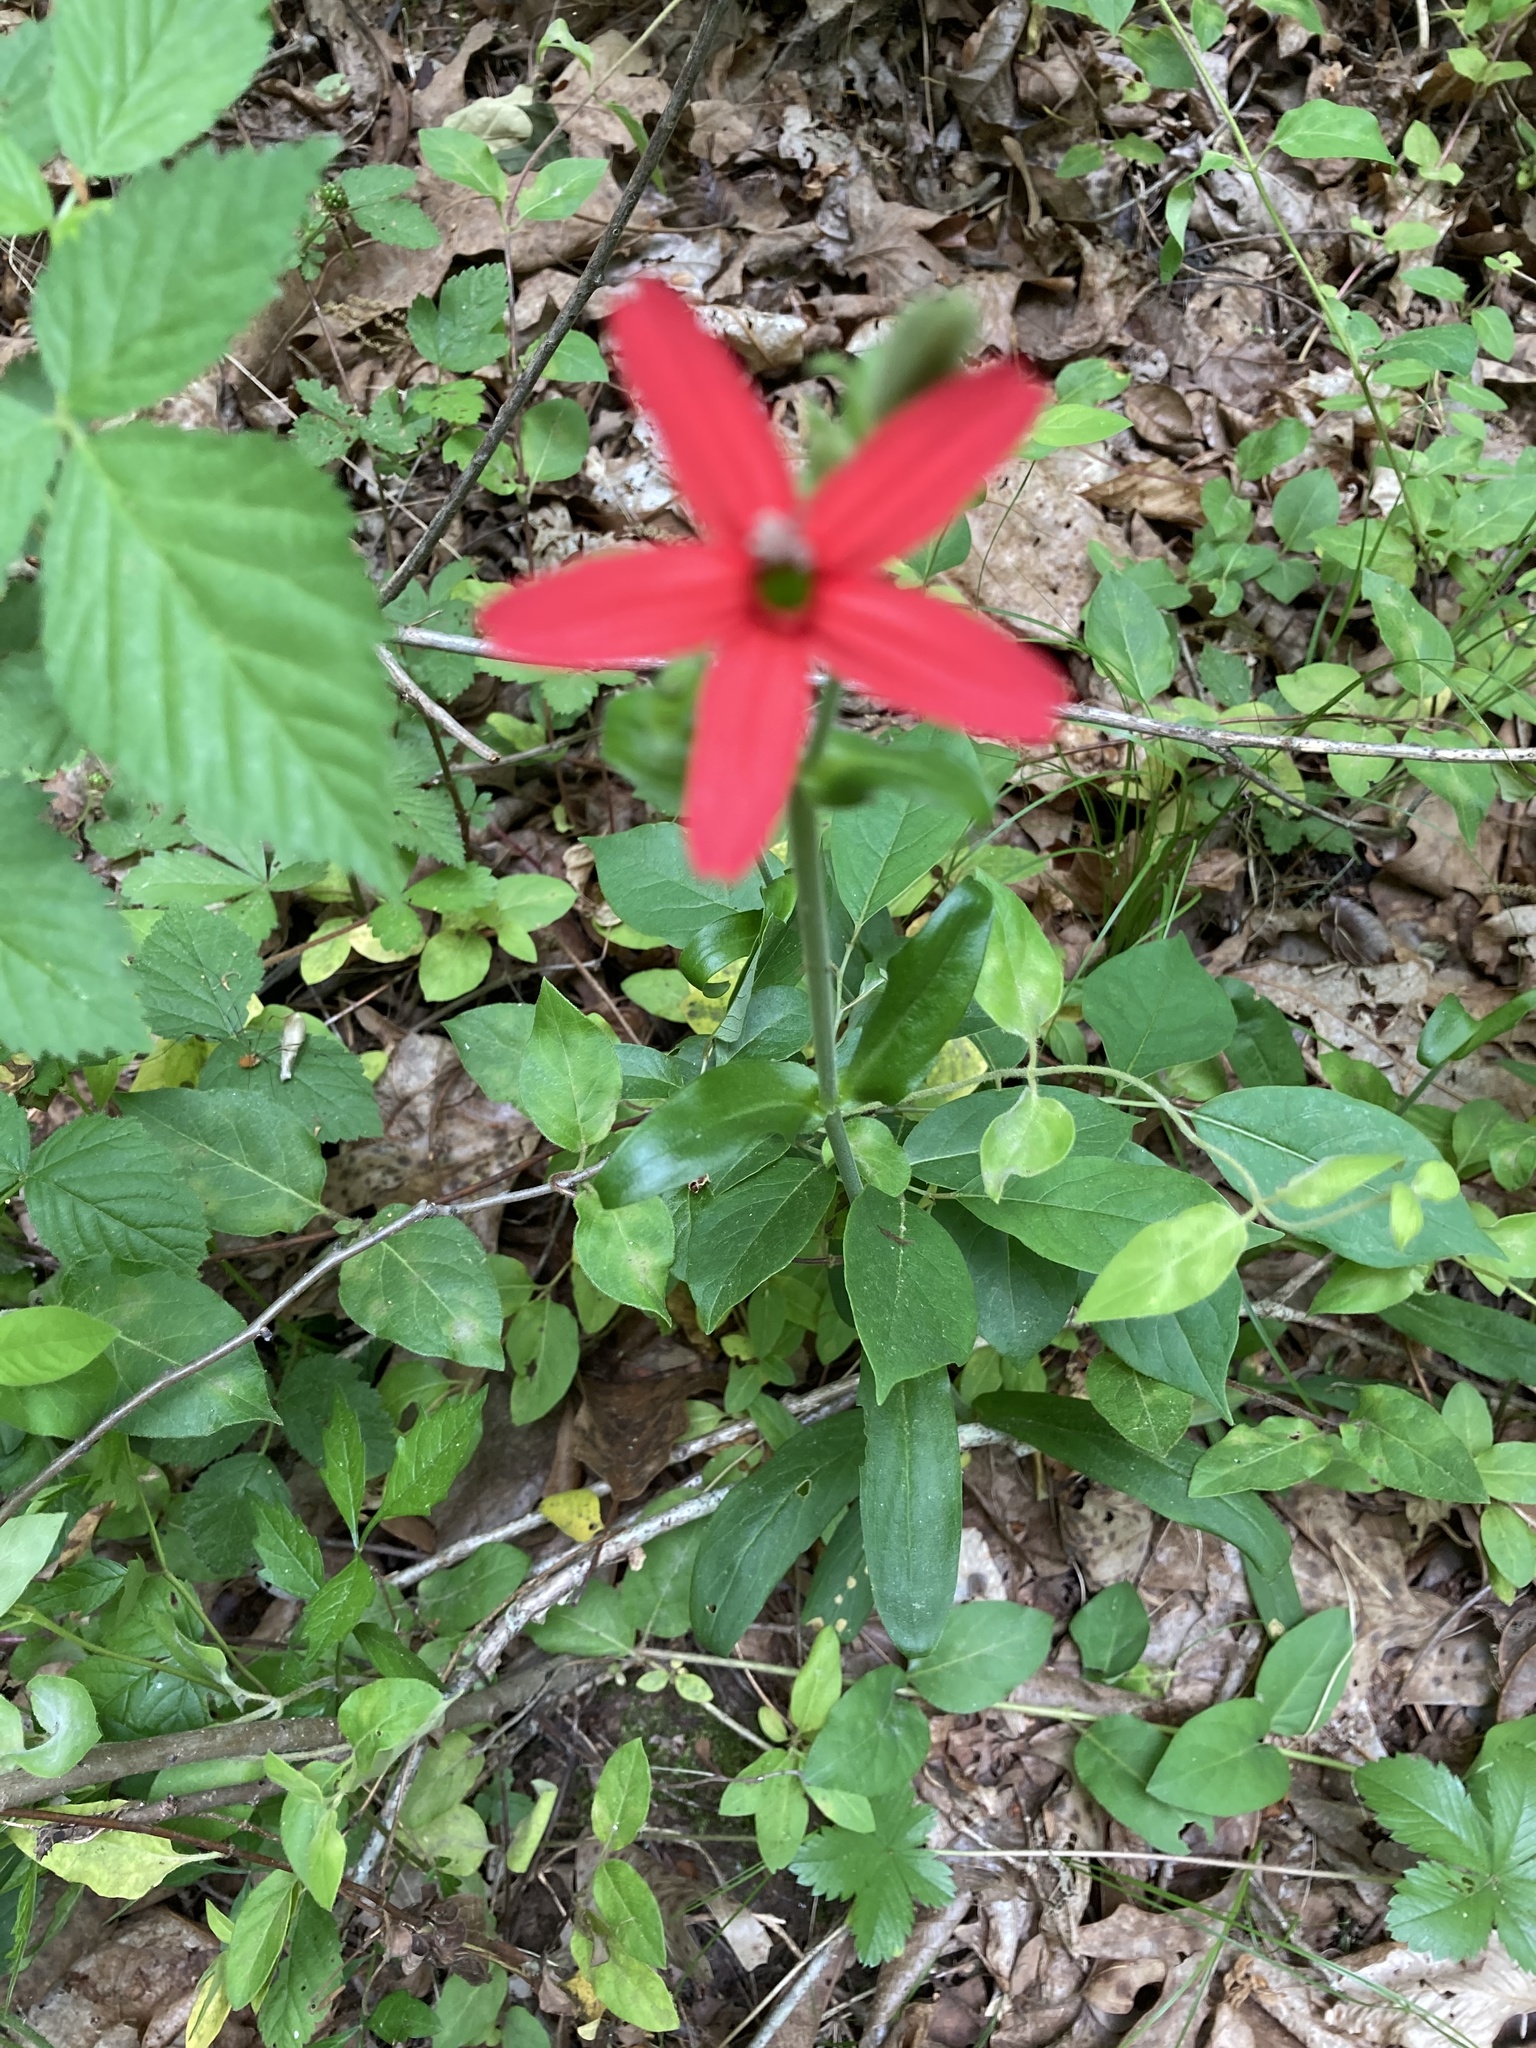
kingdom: Plantae
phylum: Tracheophyta
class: Magnoliopsida
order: Caryophyllales
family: Caryophyllaceae
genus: Silene
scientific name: Silene virginica
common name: Fire-pink
